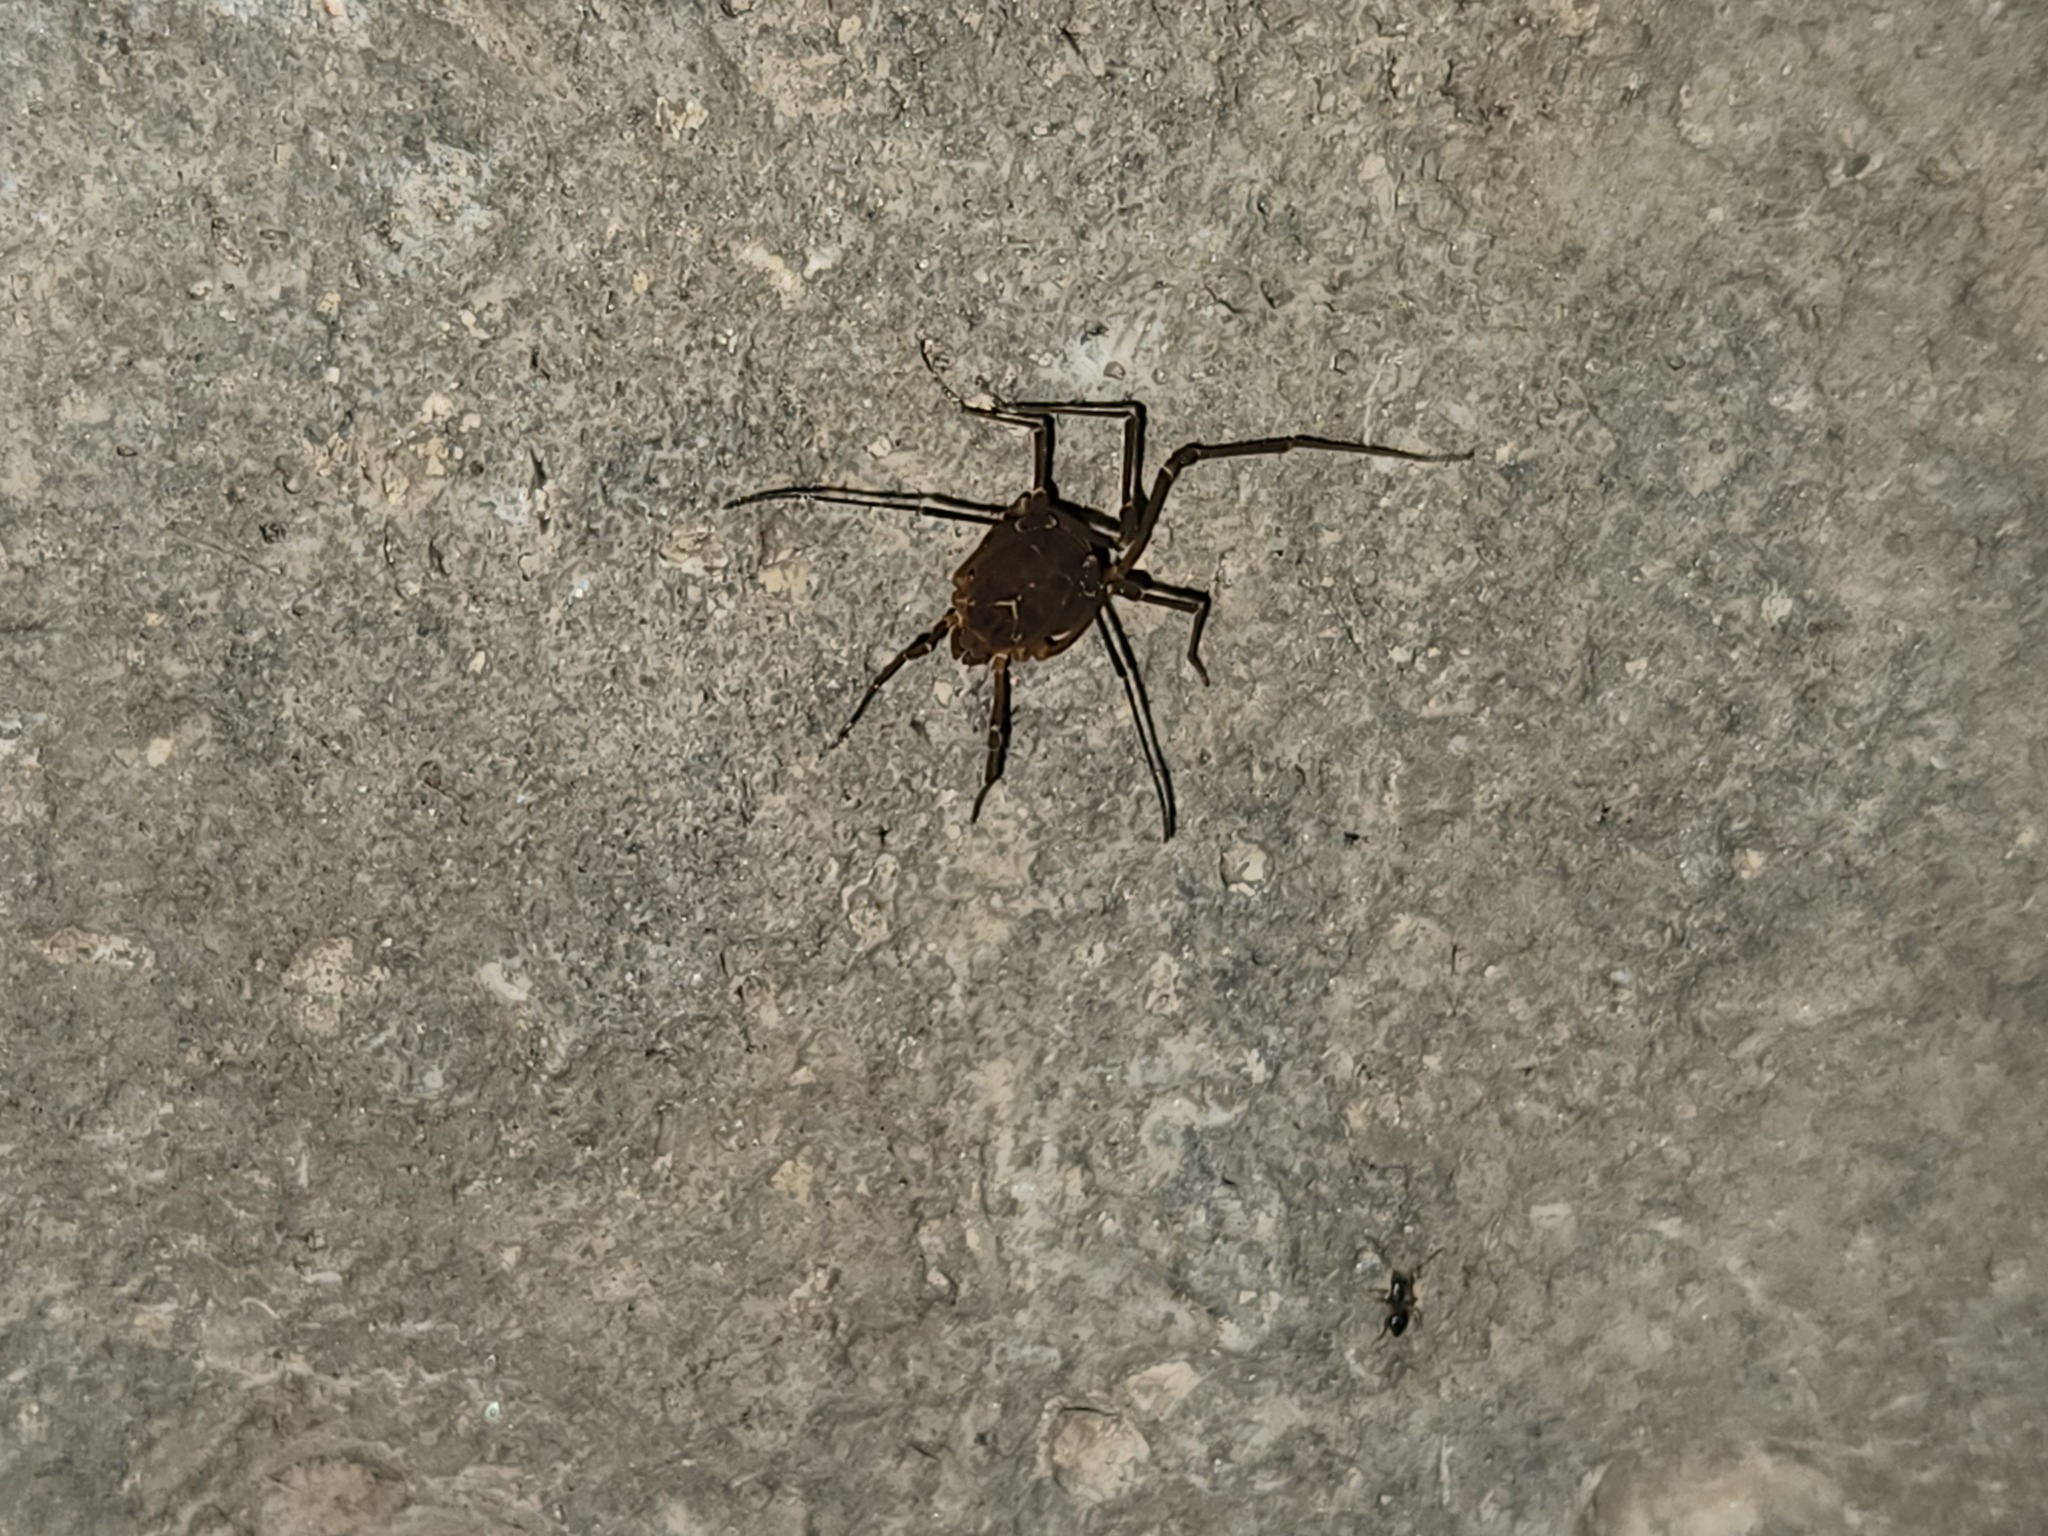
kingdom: Animalia
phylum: Arthropoda
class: Arachnida
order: Opiliones
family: Cosmetidae
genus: Libitioides
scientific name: Libitioides sayi
